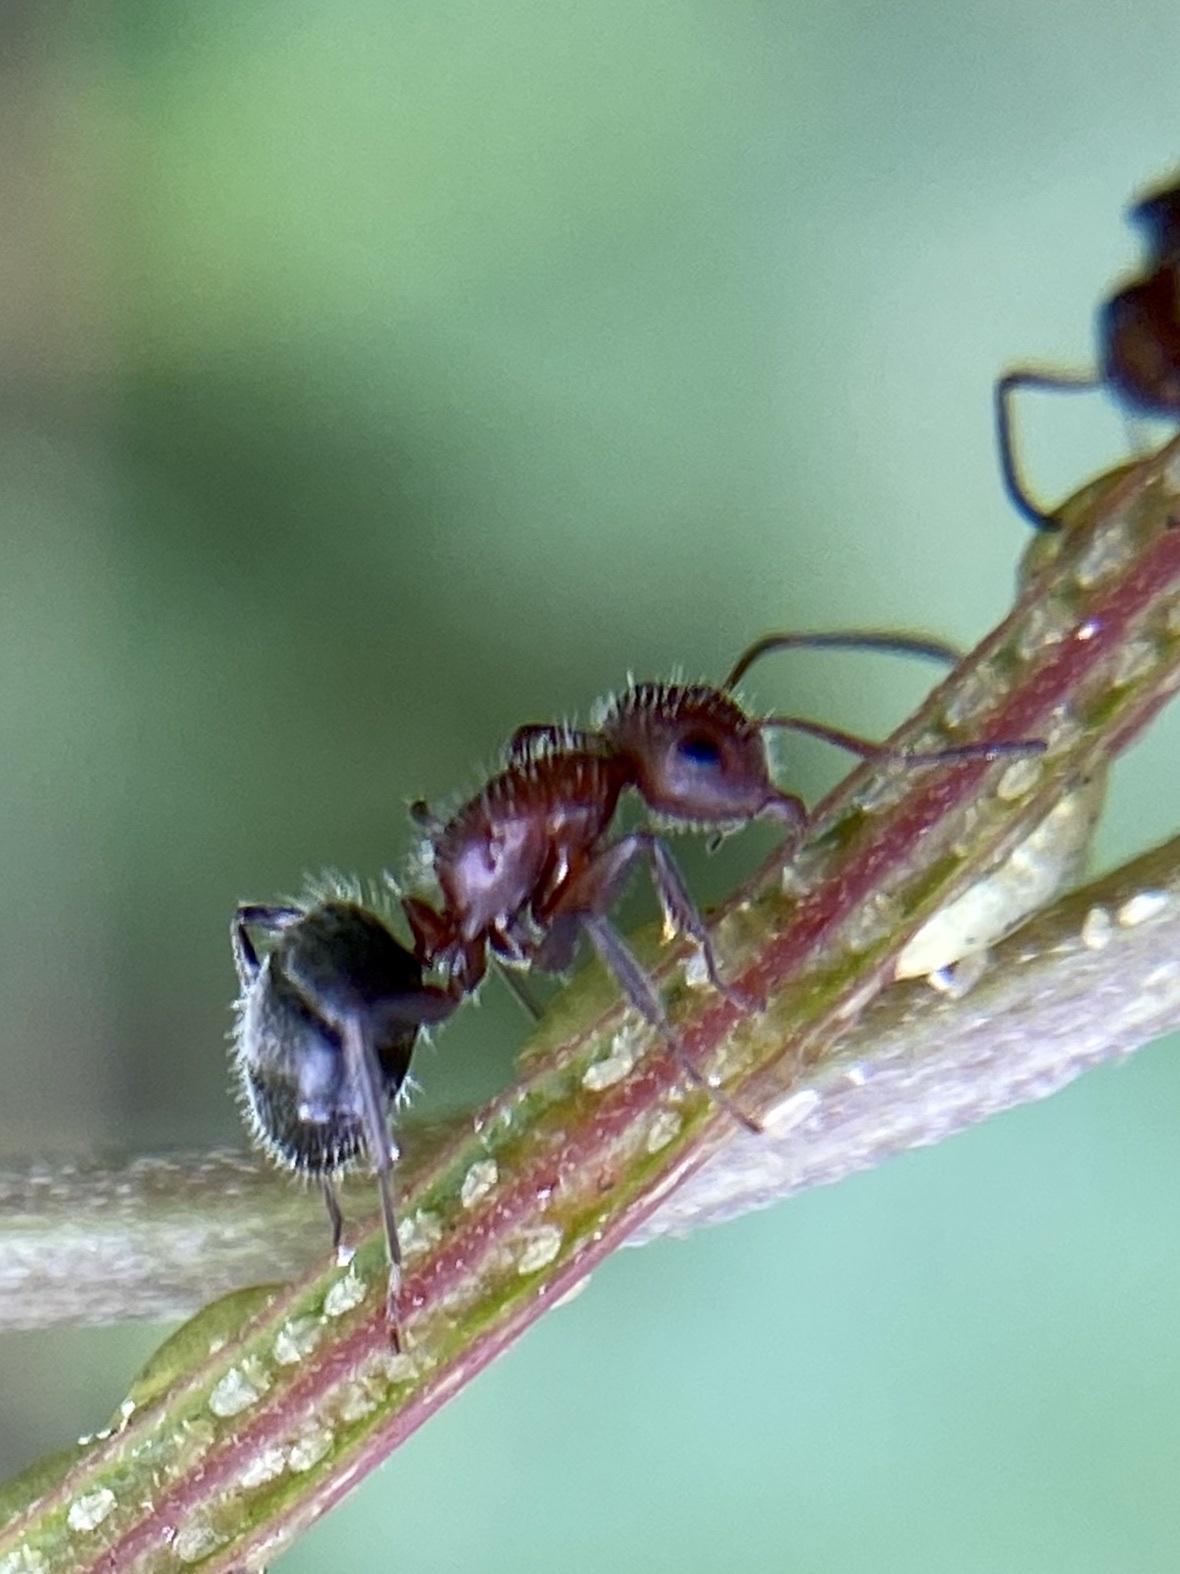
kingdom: Animalia
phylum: Arthropoda
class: Insecta
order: Hymenoptera
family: Formicidae
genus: Camponotus
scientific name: Camponotus planatus
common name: Compact carpenter ant
